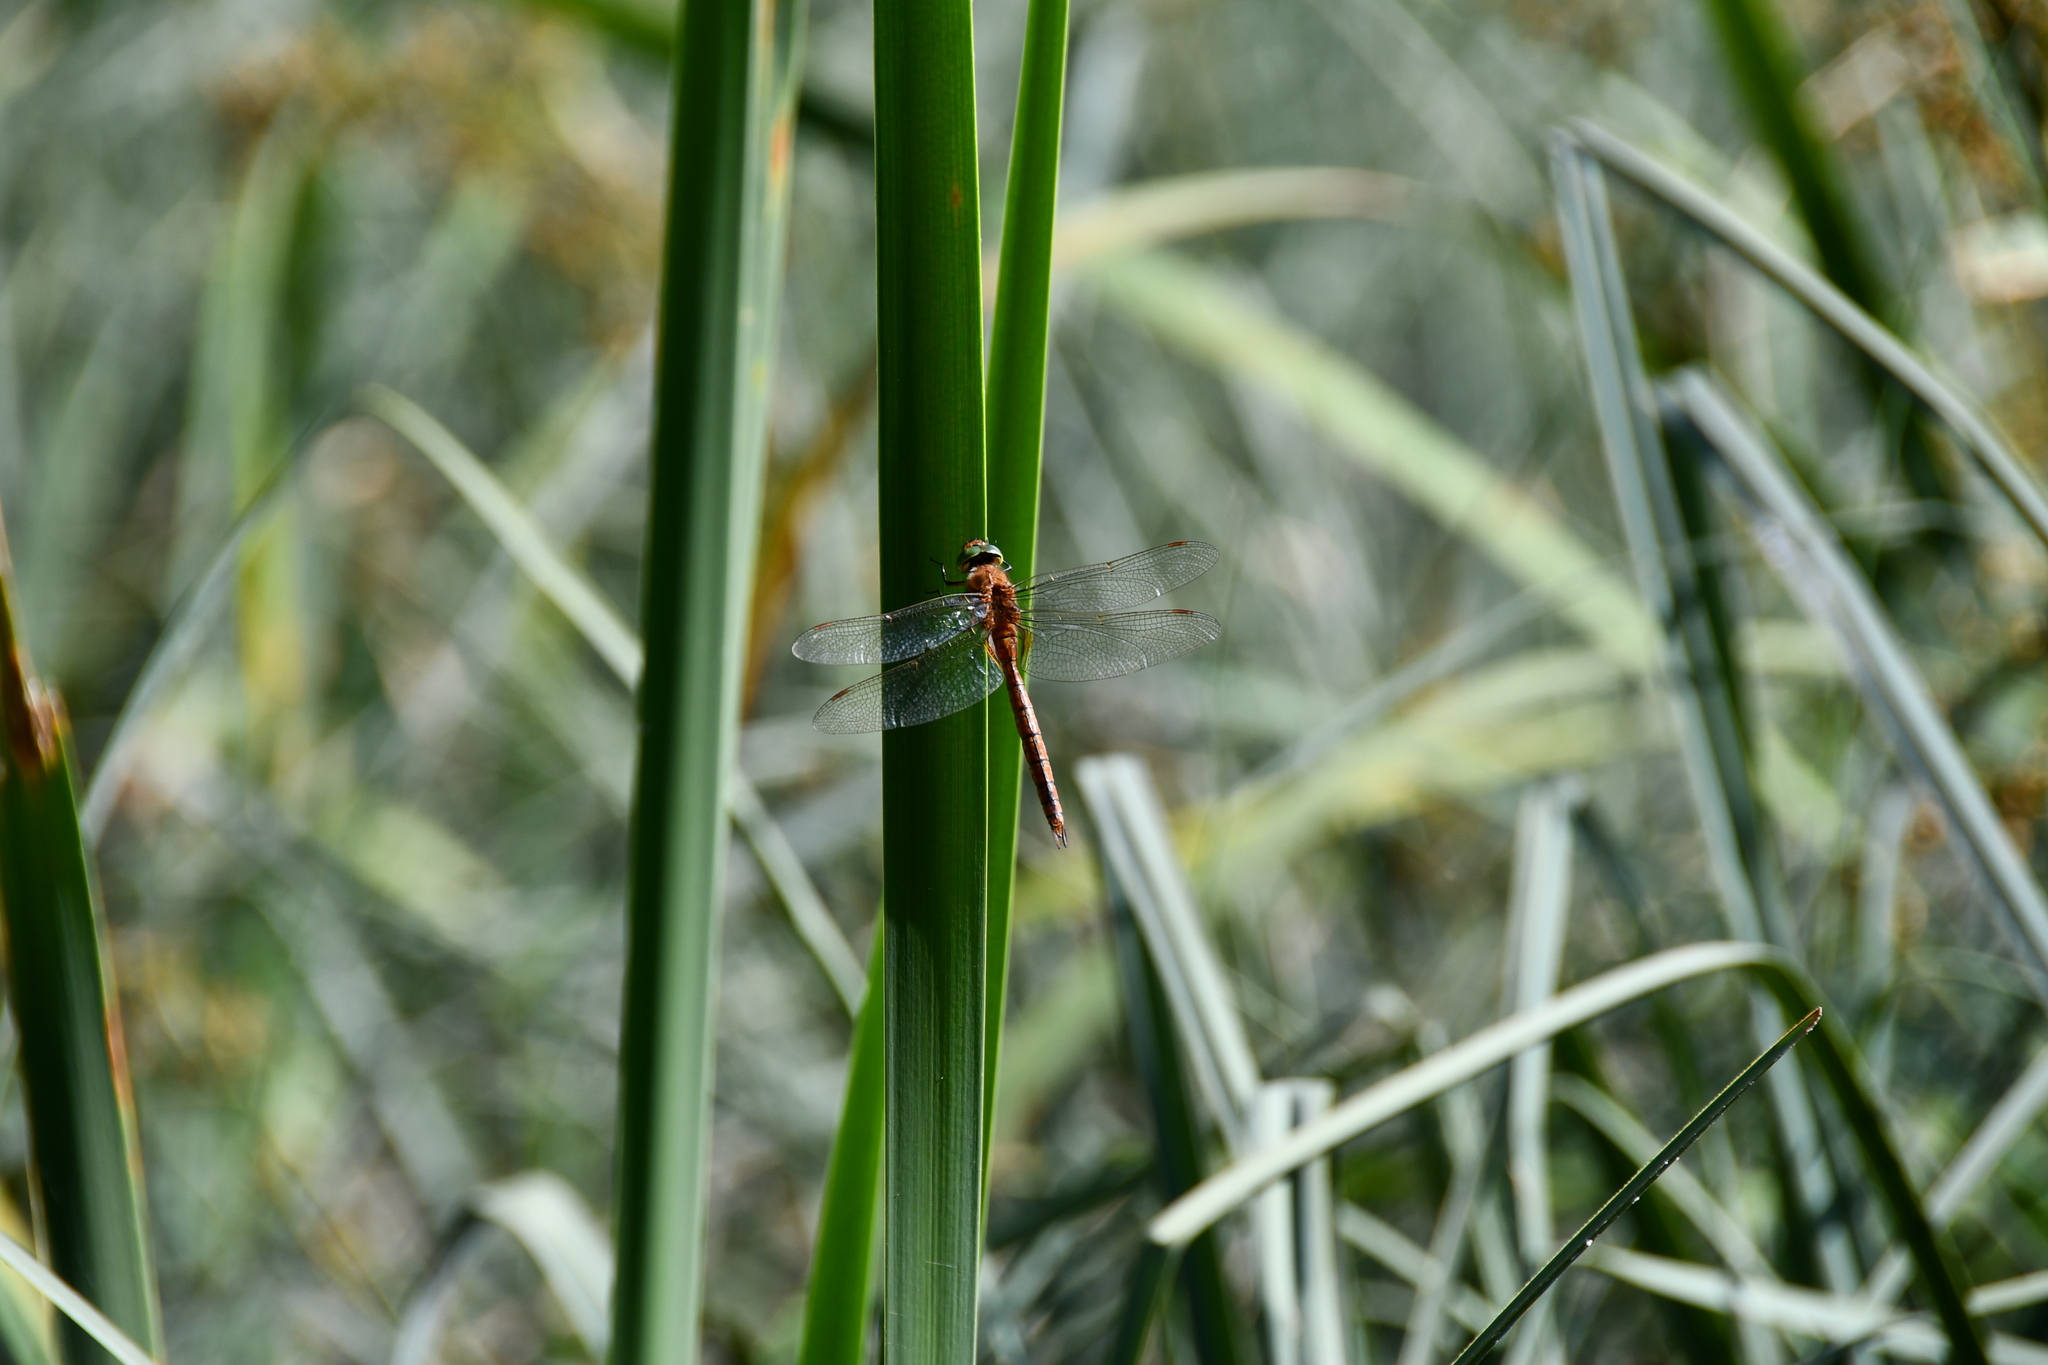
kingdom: Animalia
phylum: Arthropoda
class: Insecta
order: Odonata
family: Aeshnidae
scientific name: Aeshnidae
